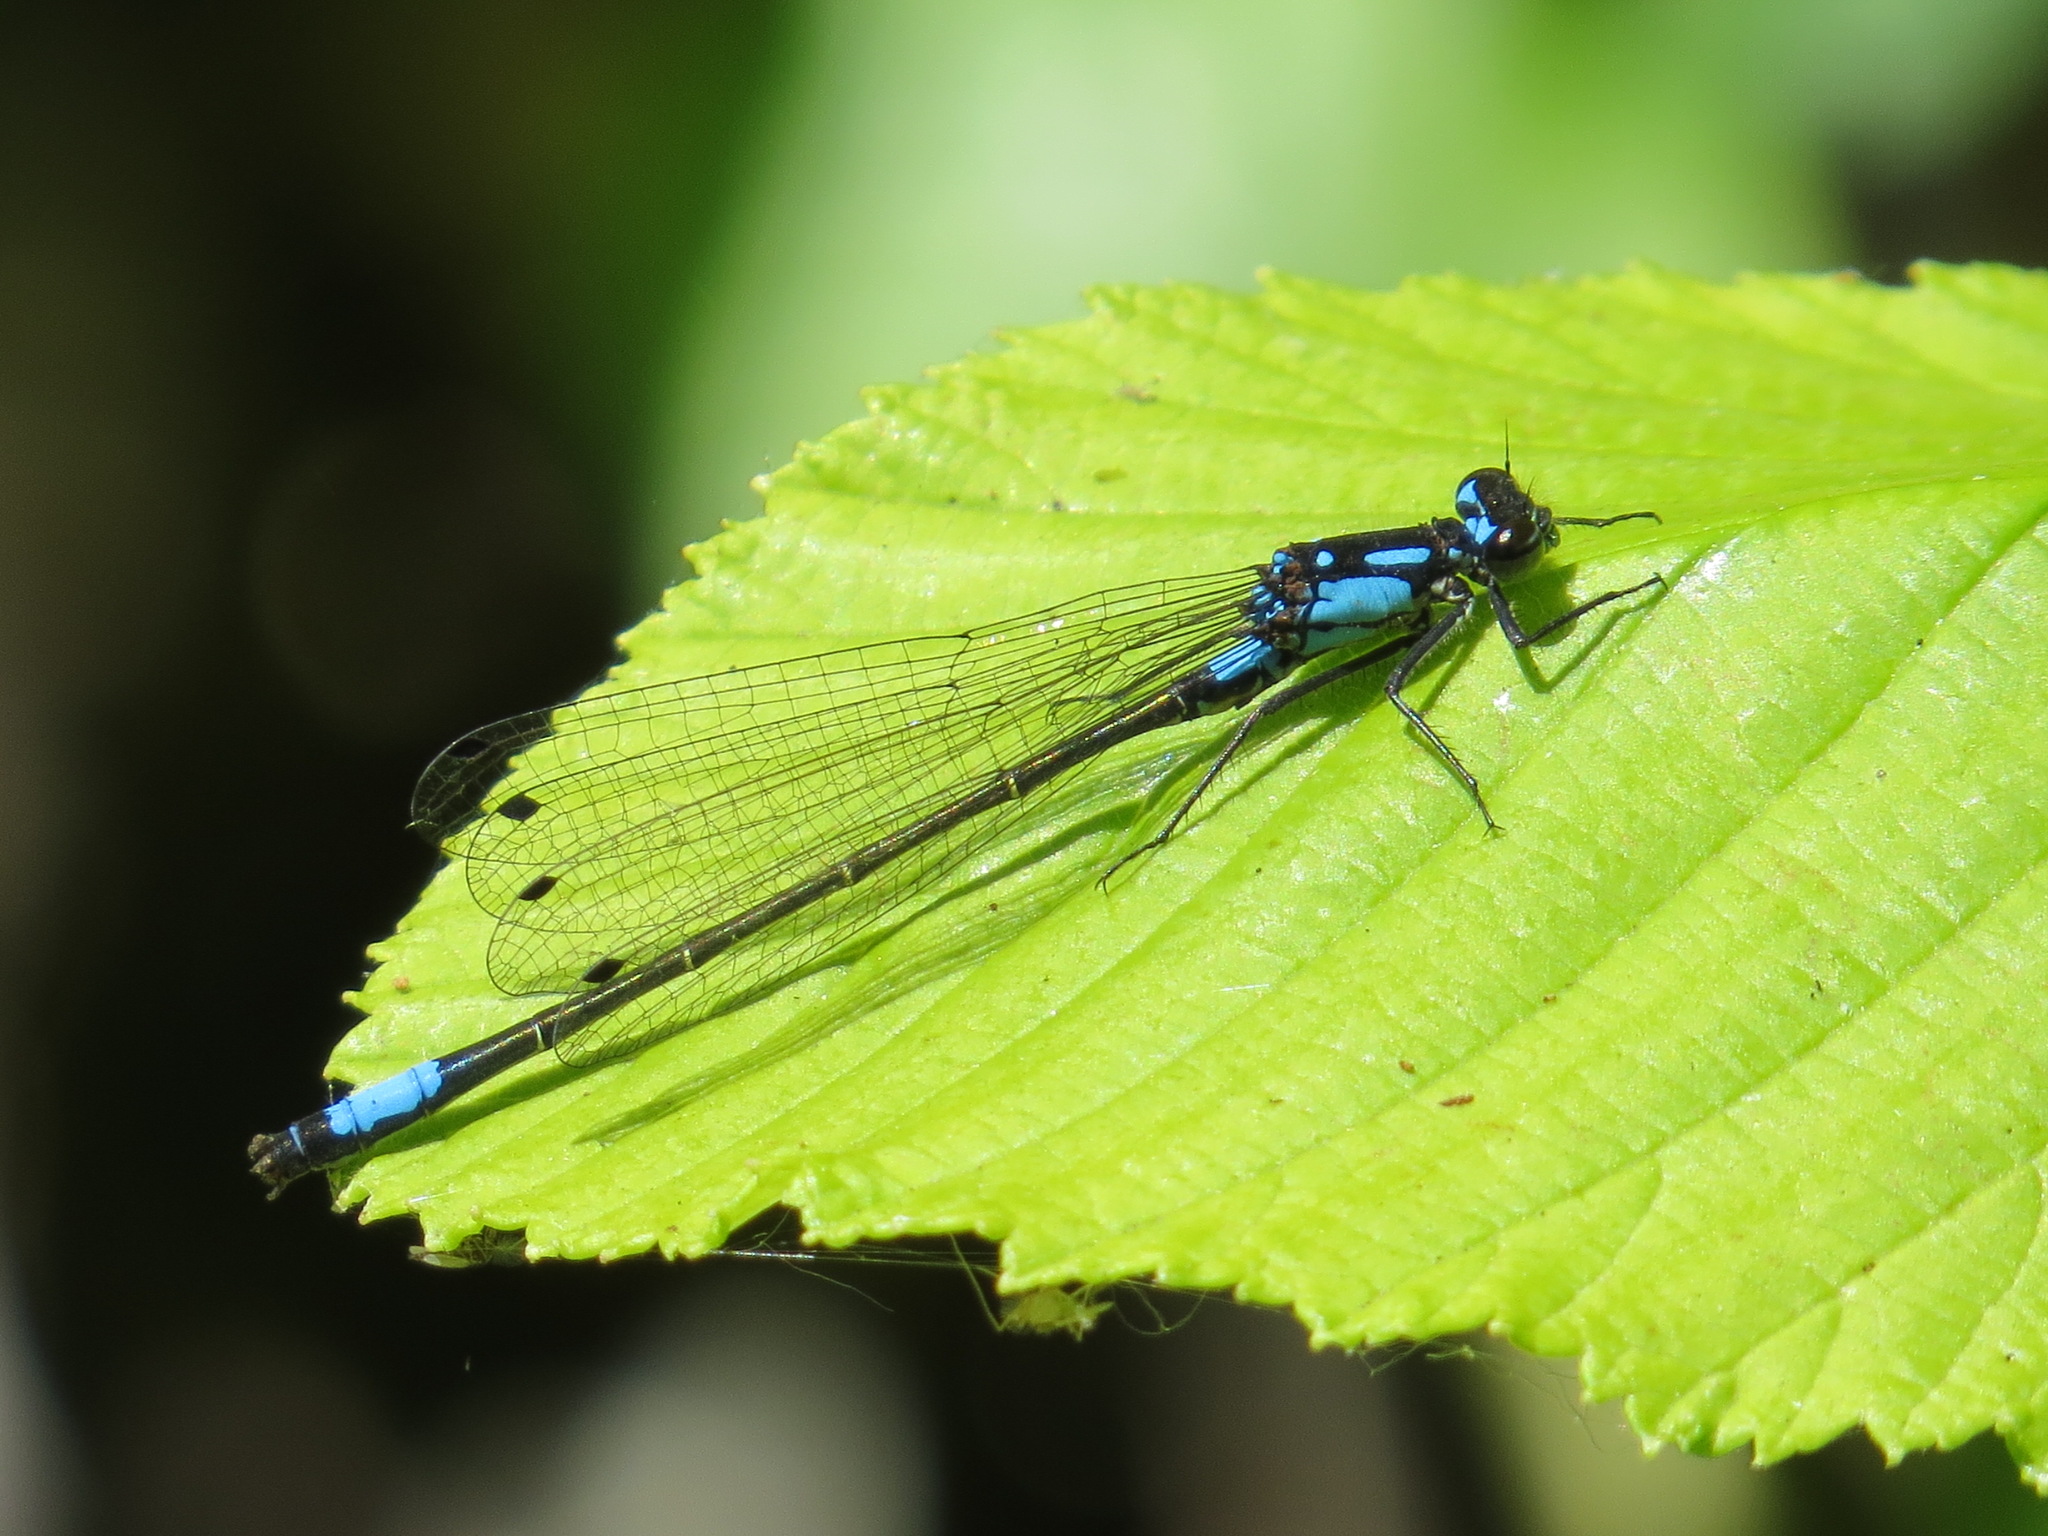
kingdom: Animalia
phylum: Arthropoda
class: Insecta
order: Odonata
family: Coenagrionidae
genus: Zoniagrion
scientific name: Zoniagrion exclamationis
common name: Exclamation damsel
